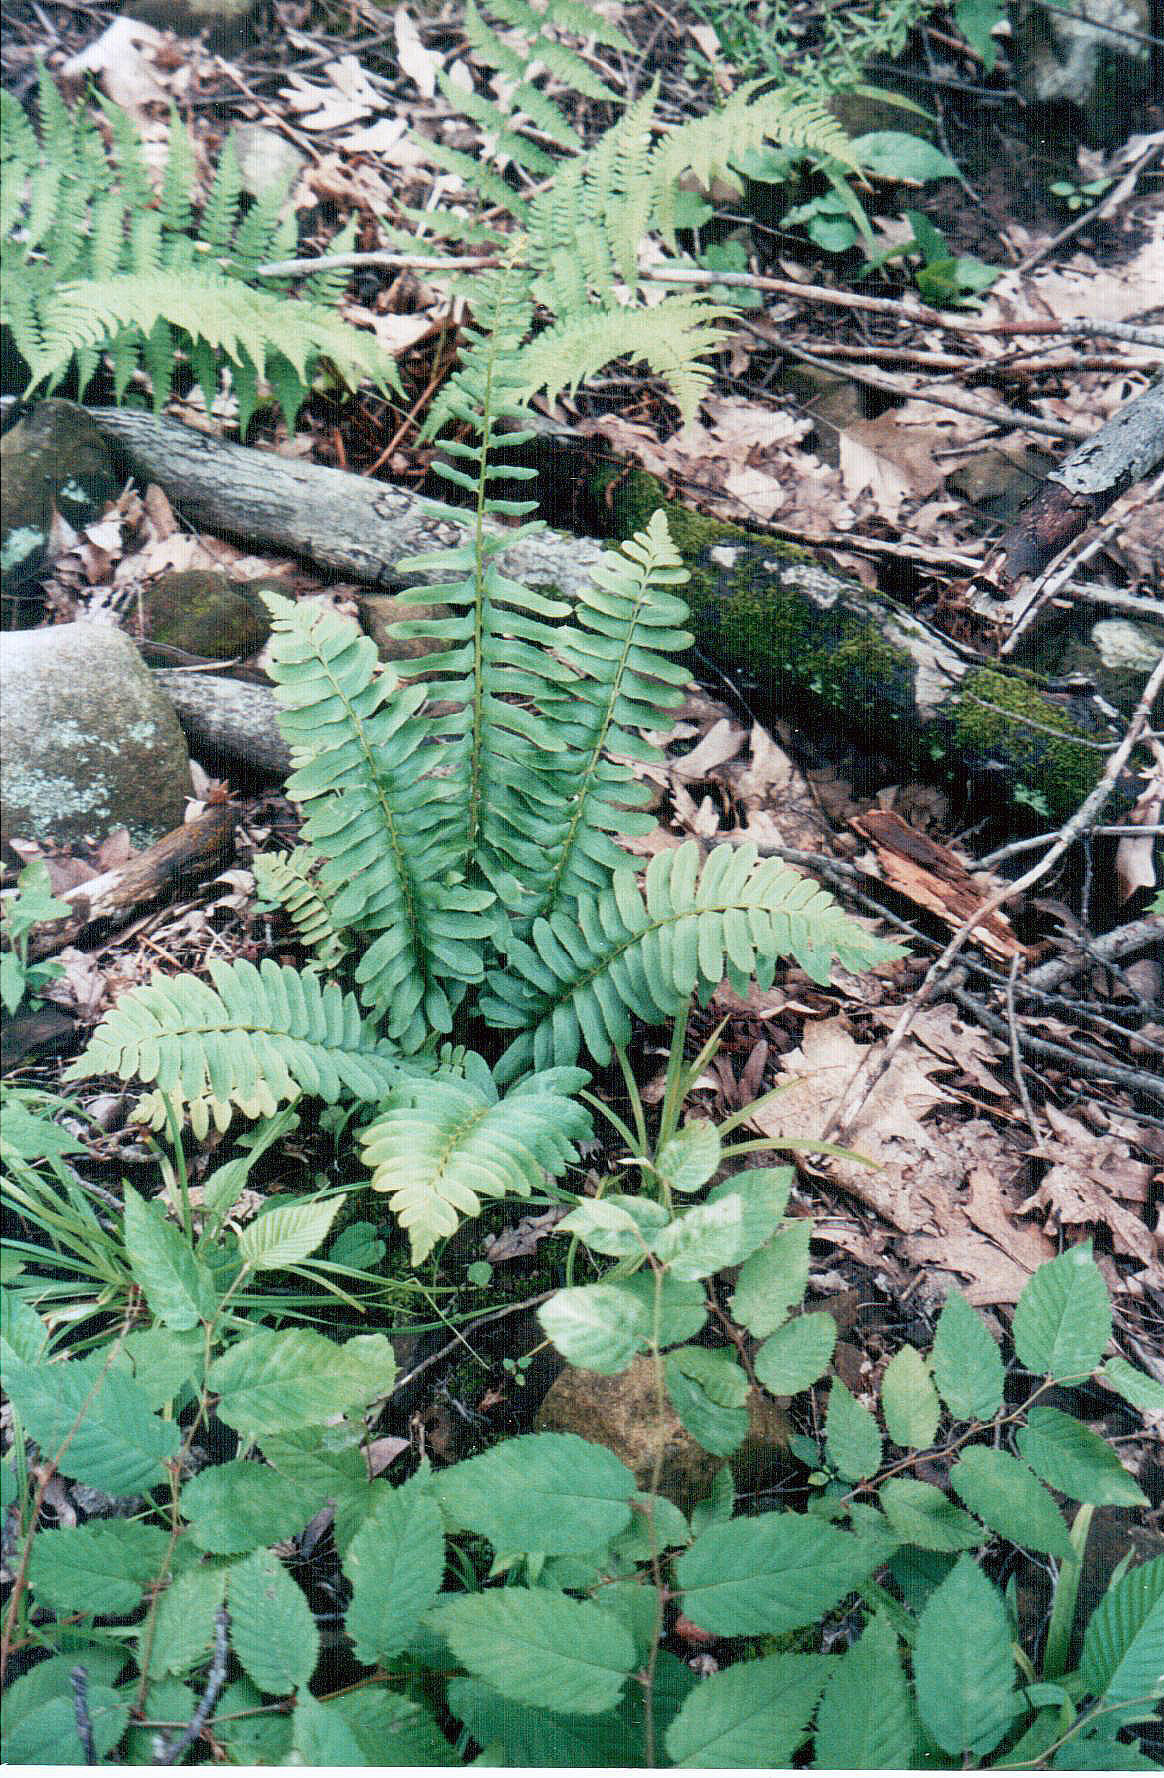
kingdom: Plantae
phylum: Tracheophyta
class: Polypodiopsida
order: Polypodiales
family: Dryopteridaceae
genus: Polystichum
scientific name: Polystichum acrostichoides
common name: Christmas fern
